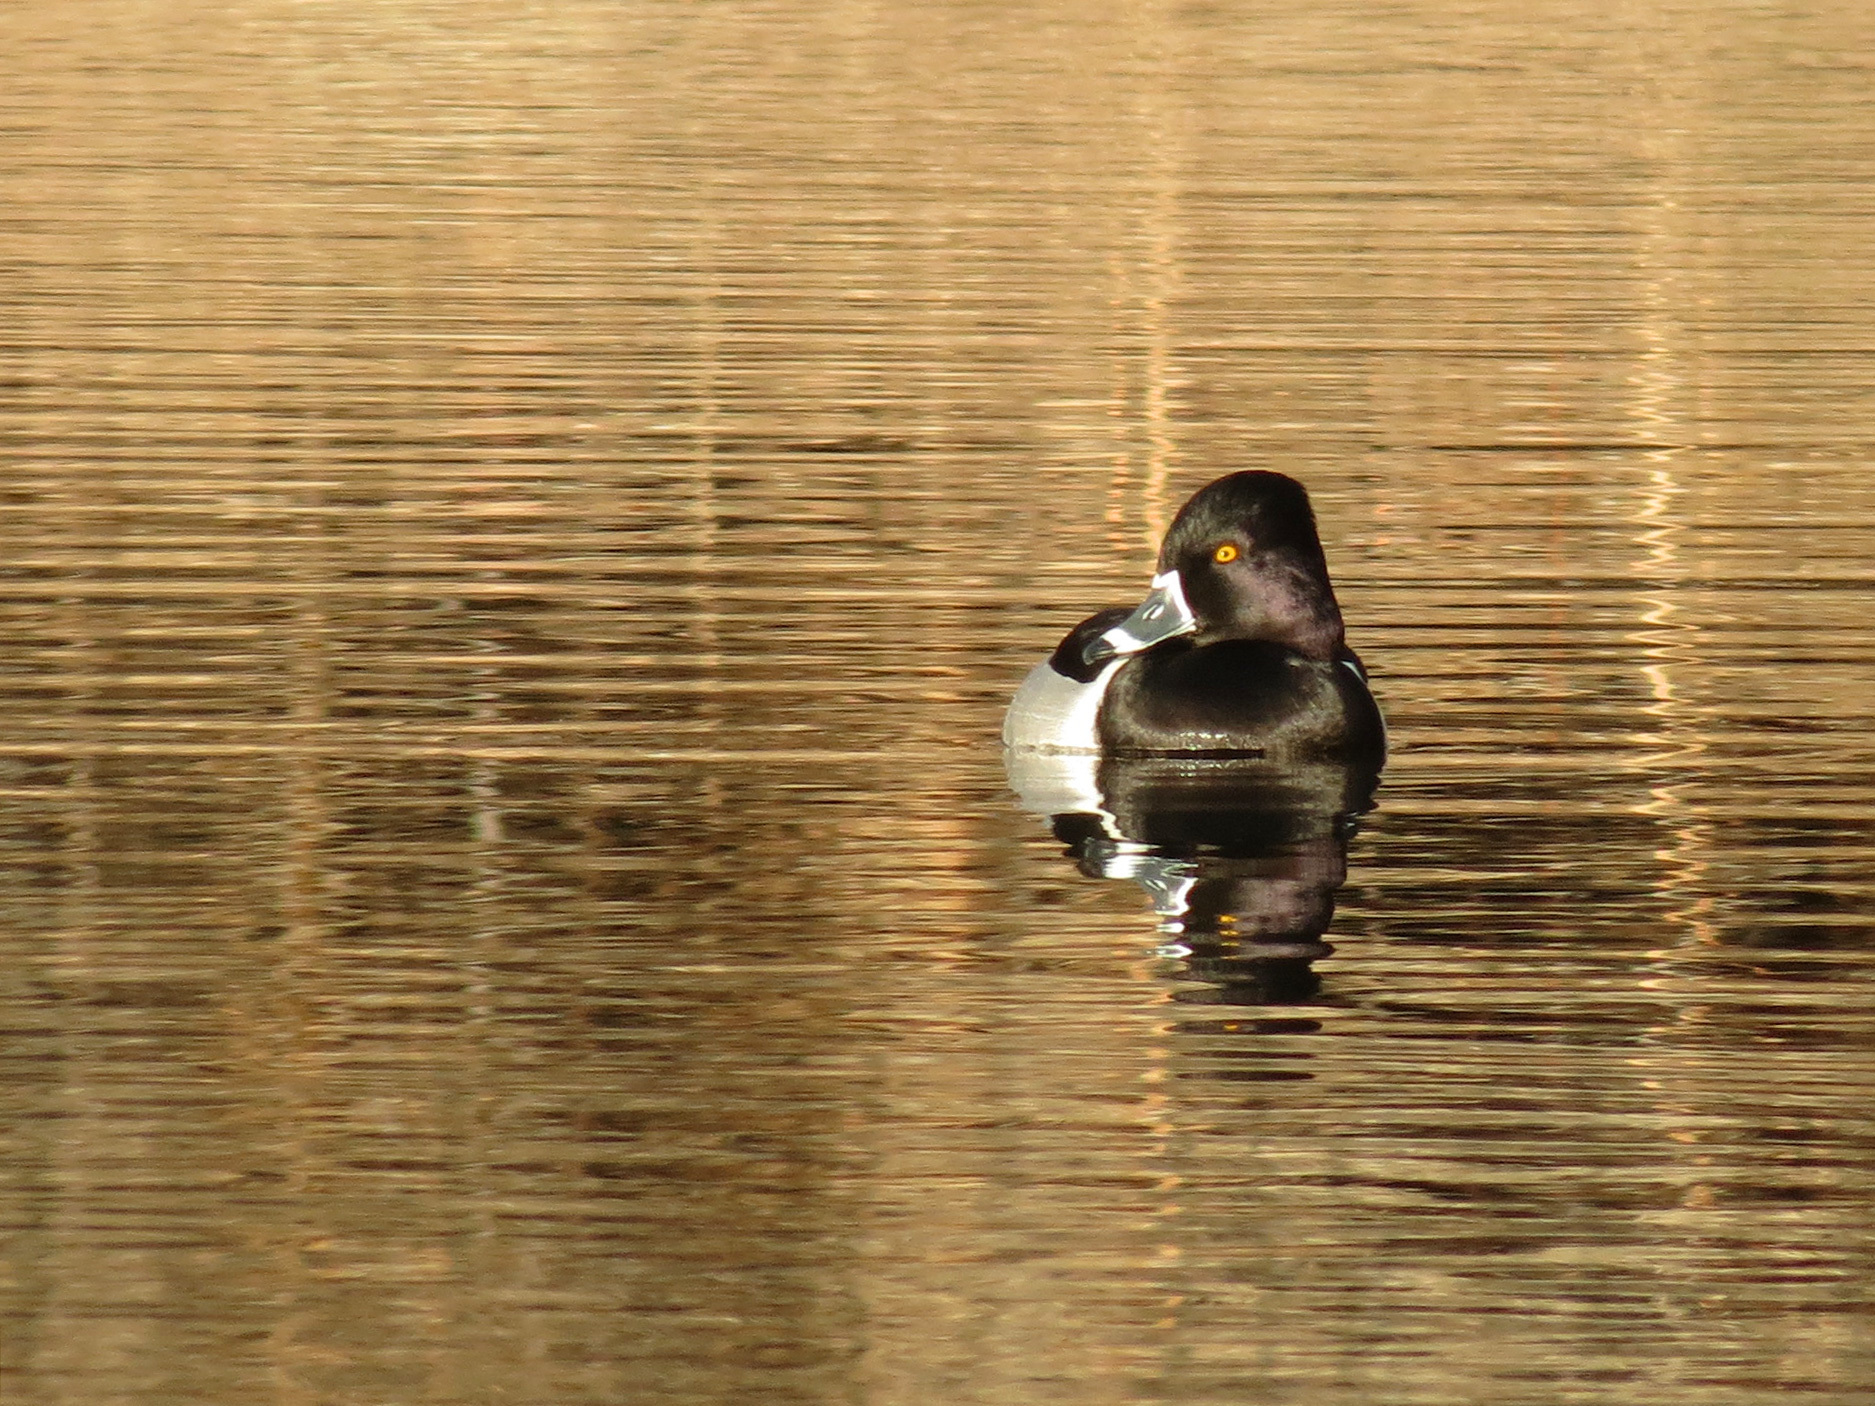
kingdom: Animalia
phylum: Chordata
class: Aves
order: Anseriformes
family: Anatidae
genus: Aythya
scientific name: Aythya collaris
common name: Ring-necked duck
